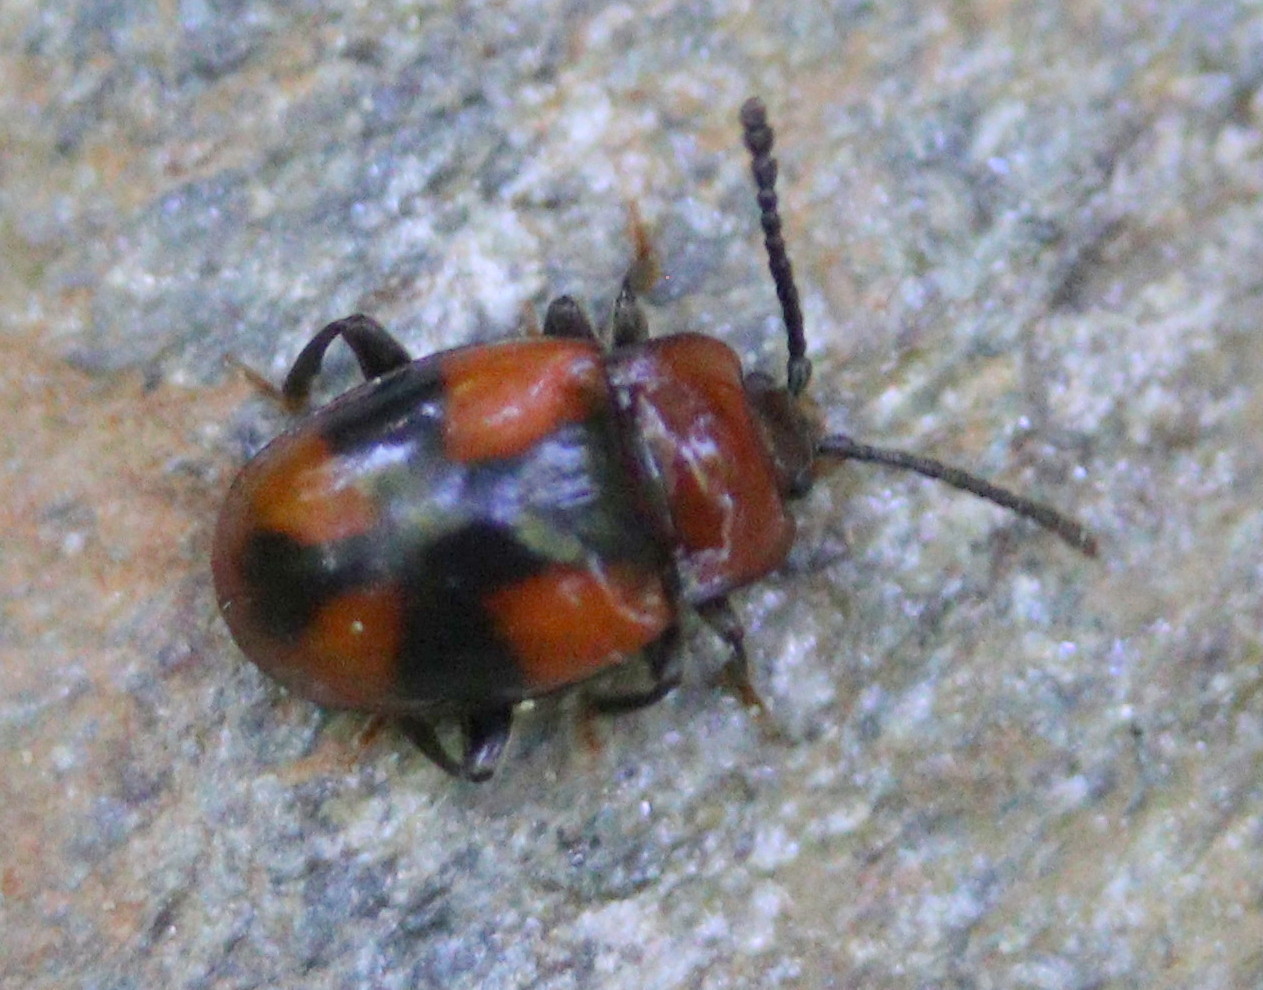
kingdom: Animalia
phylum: Arthropoda
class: Insecta
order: Coleoptera
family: Endomychidae
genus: Mycetina
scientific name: Mycetina cruciata
